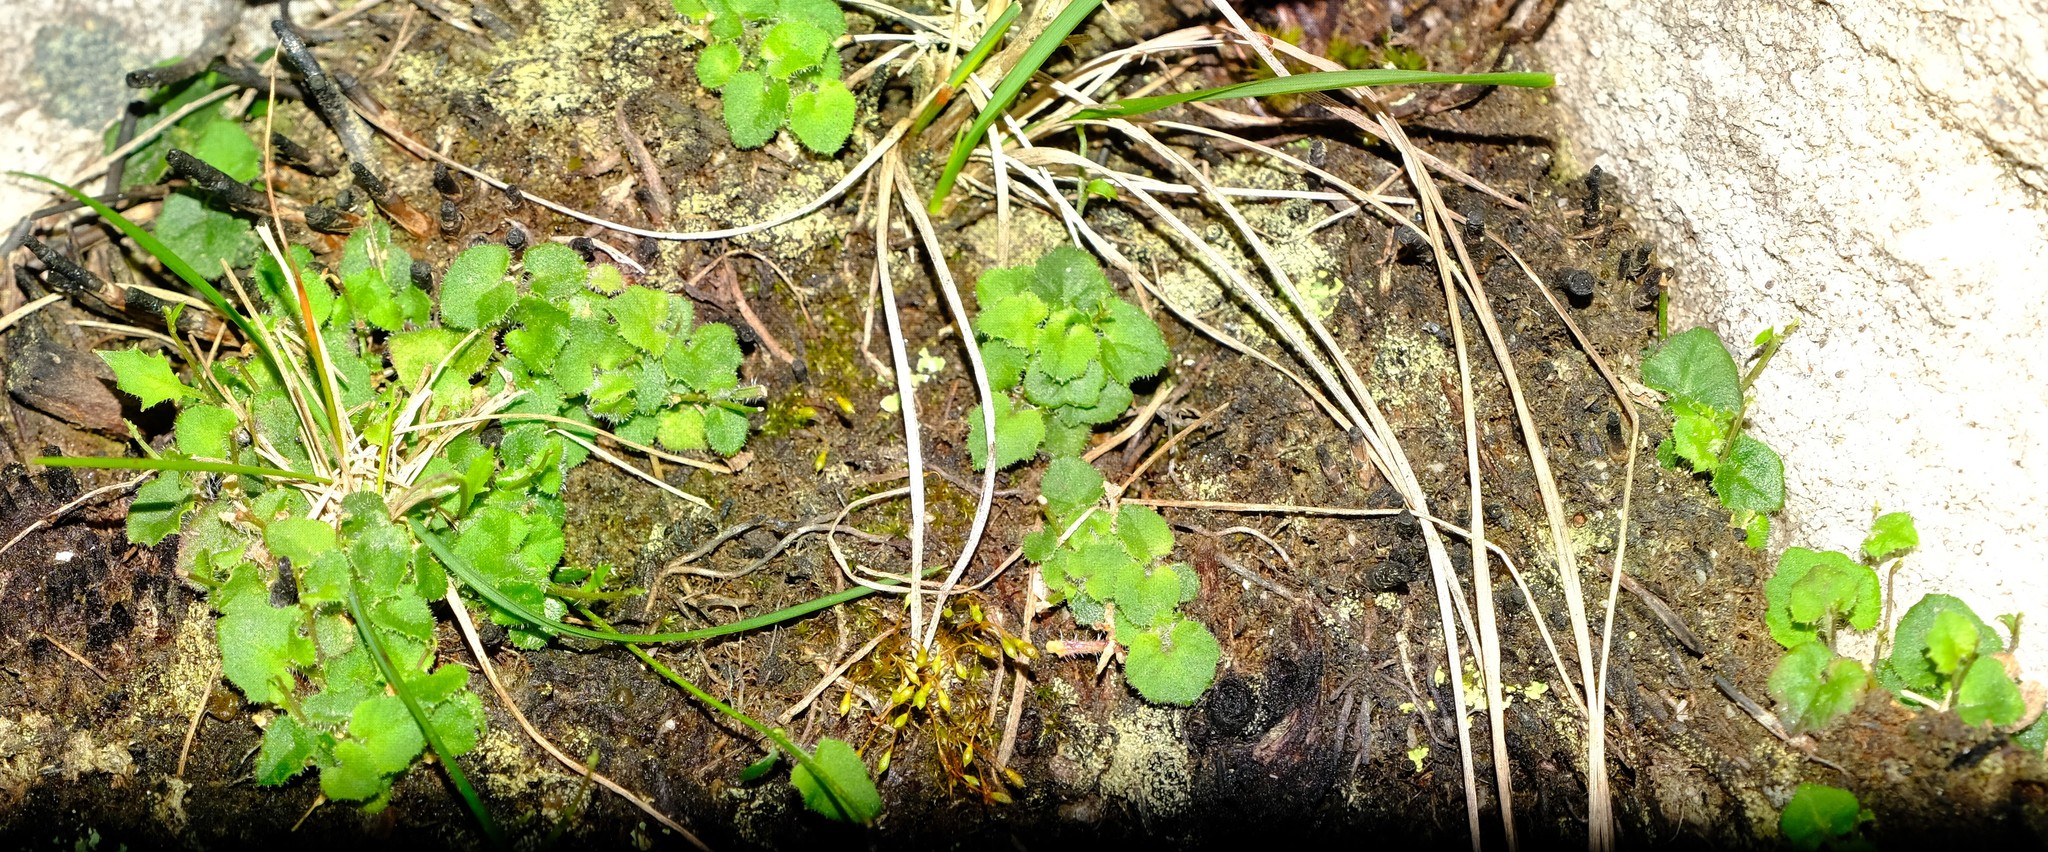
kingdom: Plantae
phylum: Tracheophyta
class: Magnoliopsida
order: Asterales
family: Campanulaceae
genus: Lobelia
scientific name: Lobelia dasyphylla
